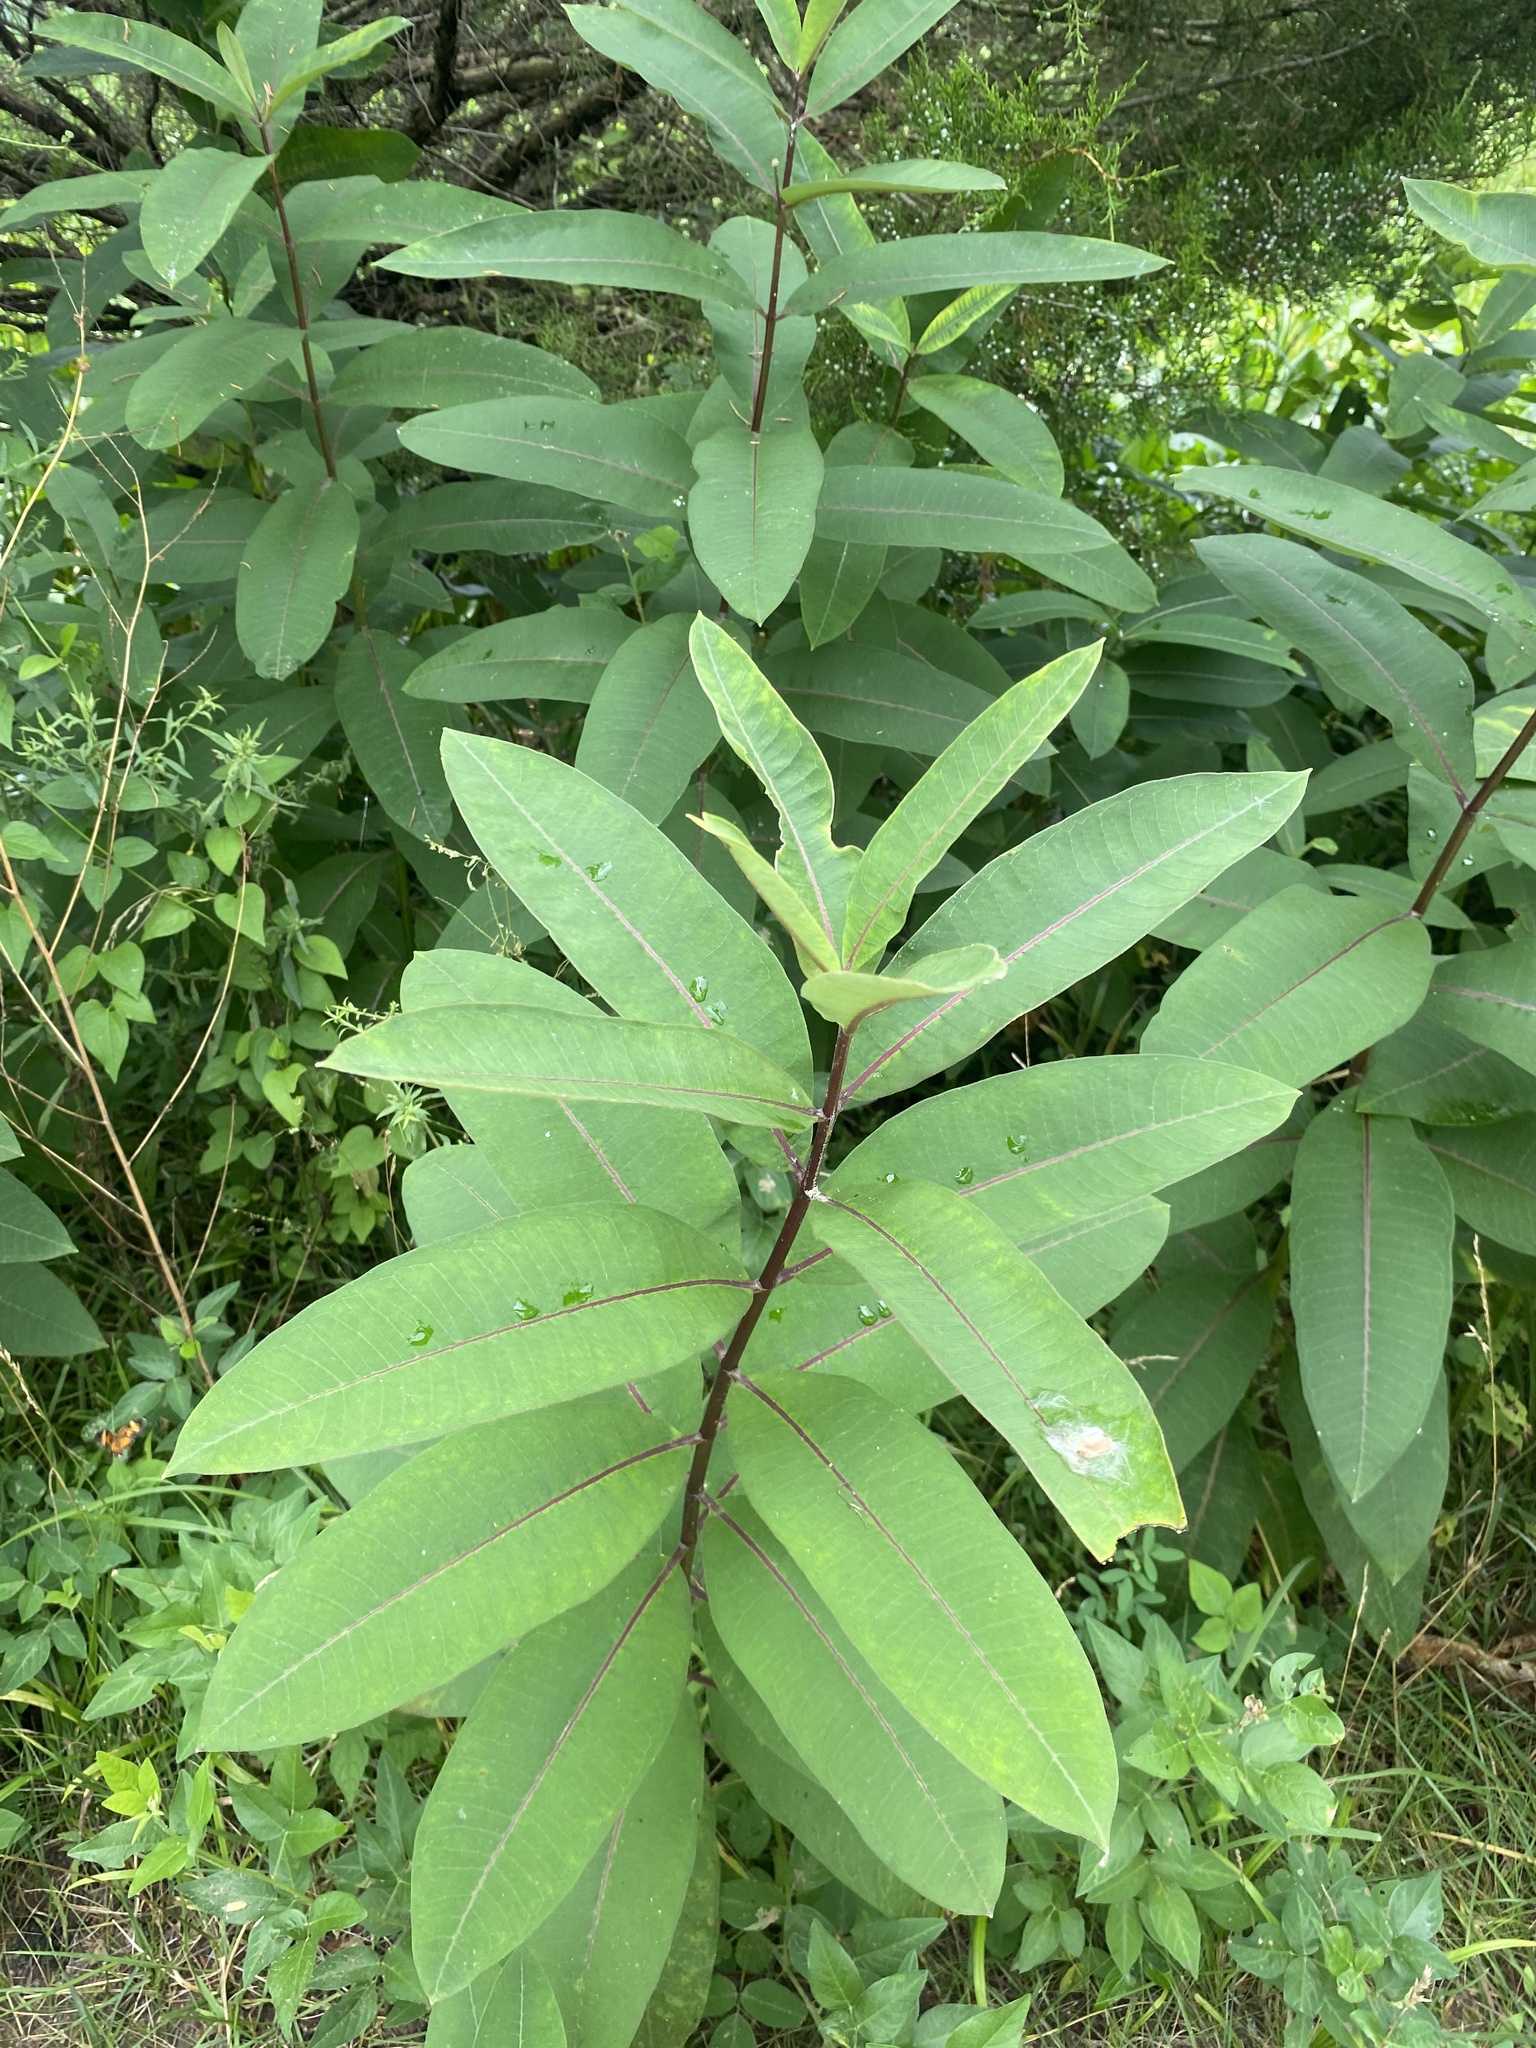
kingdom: Plantae
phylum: Tracheophyta
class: Magnoliopsida
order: Gentianales
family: Apocynaceae
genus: Asclepias
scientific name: Asclepias syriaca
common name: Common milkweed
